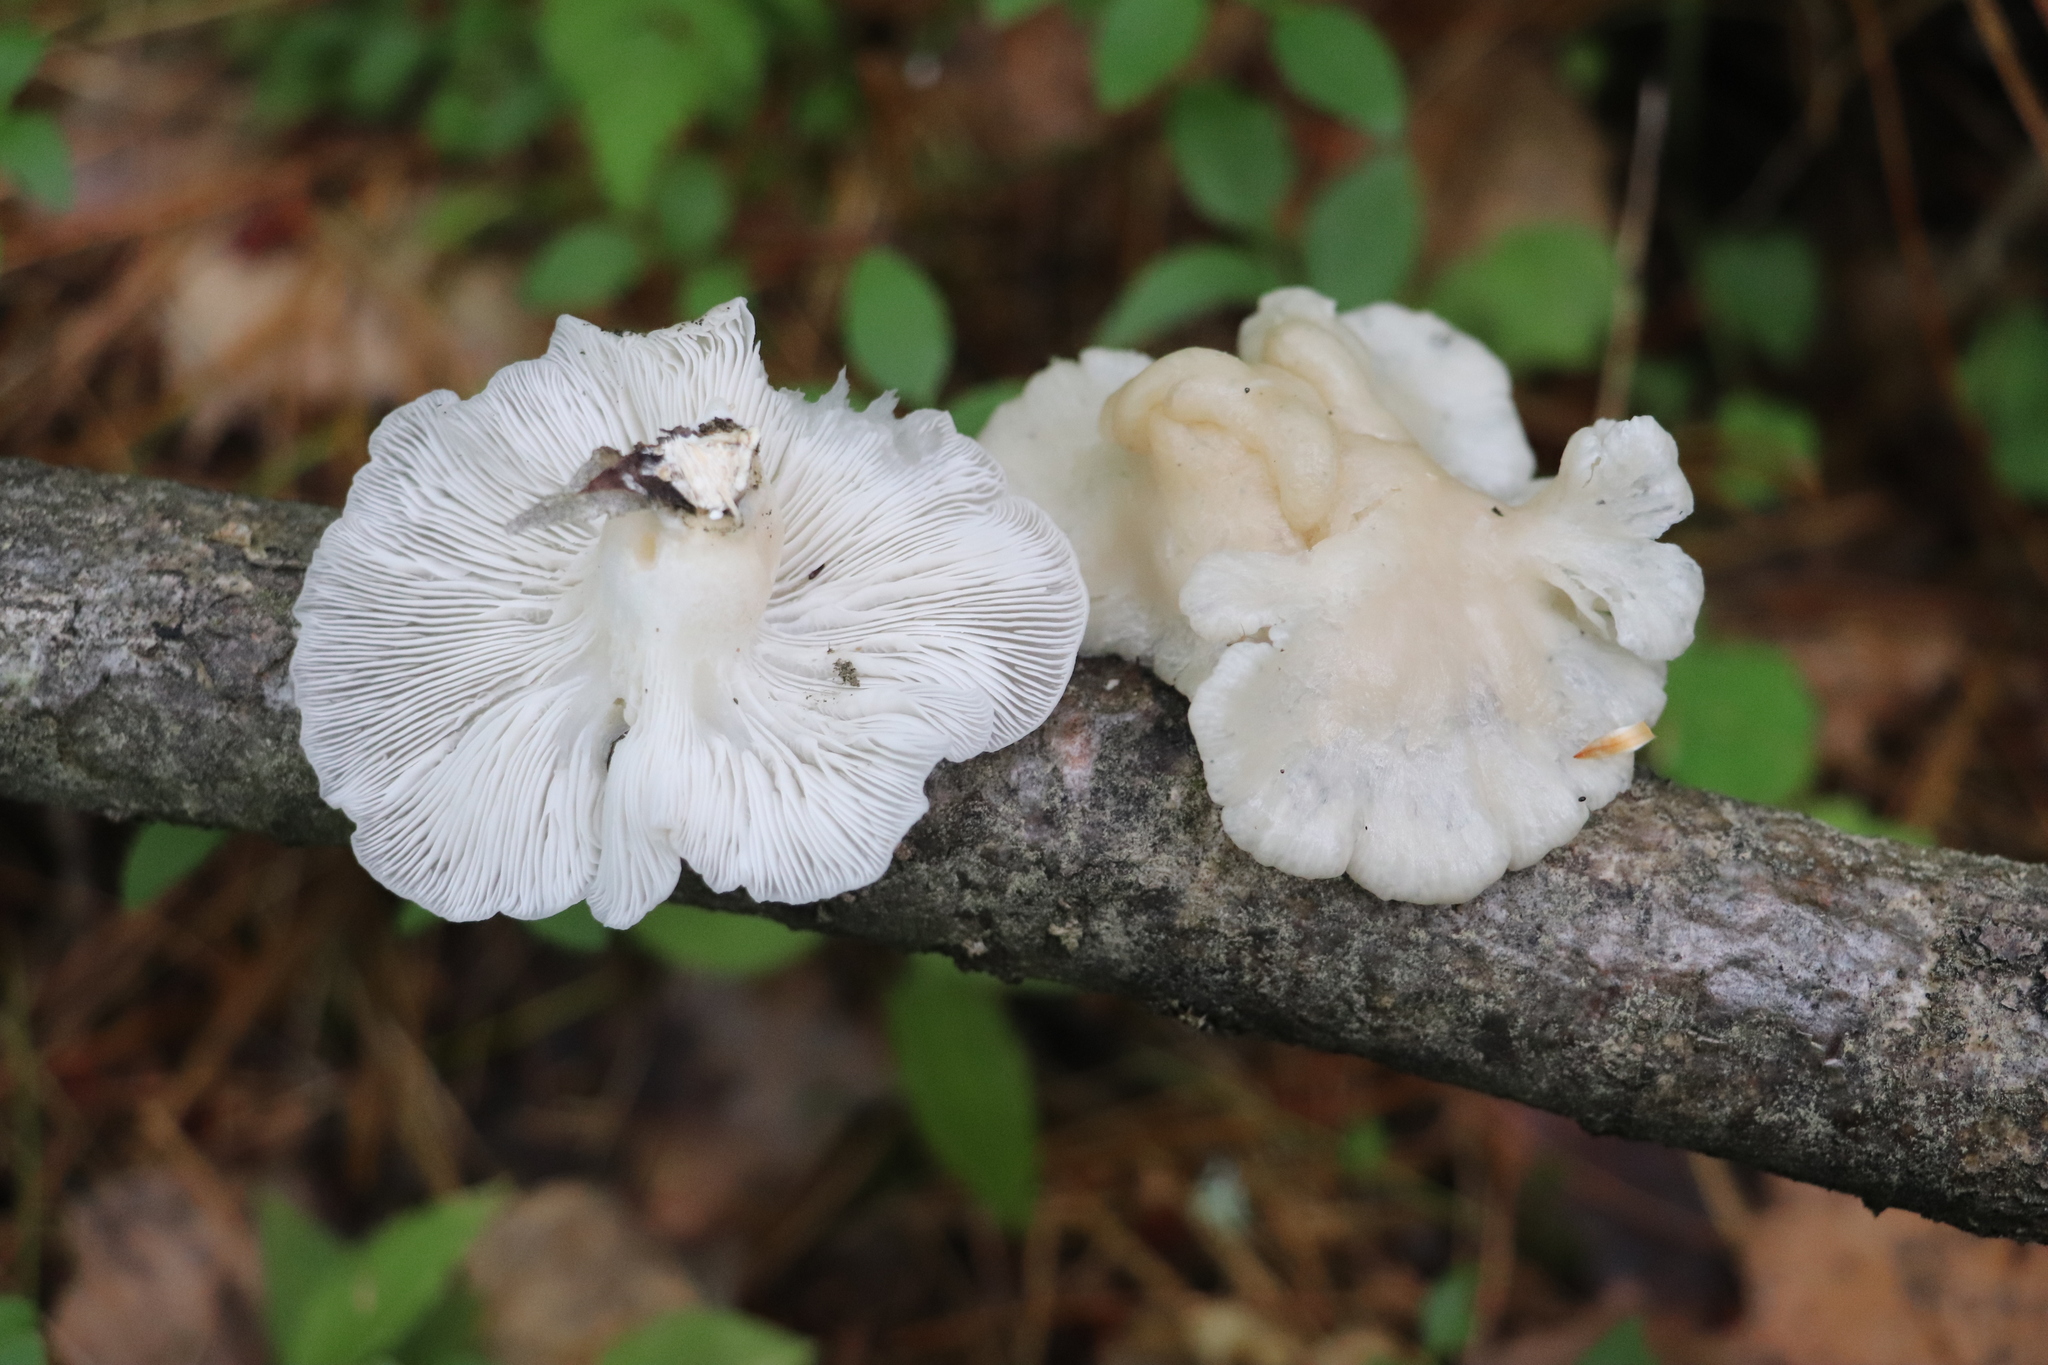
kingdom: Fungi
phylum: Basidiomycota
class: Agaricomycetes
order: Agaricales
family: Pleurotaceae
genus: Pleurotus
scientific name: Pleurotus pulmonarius
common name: Pale oyster
